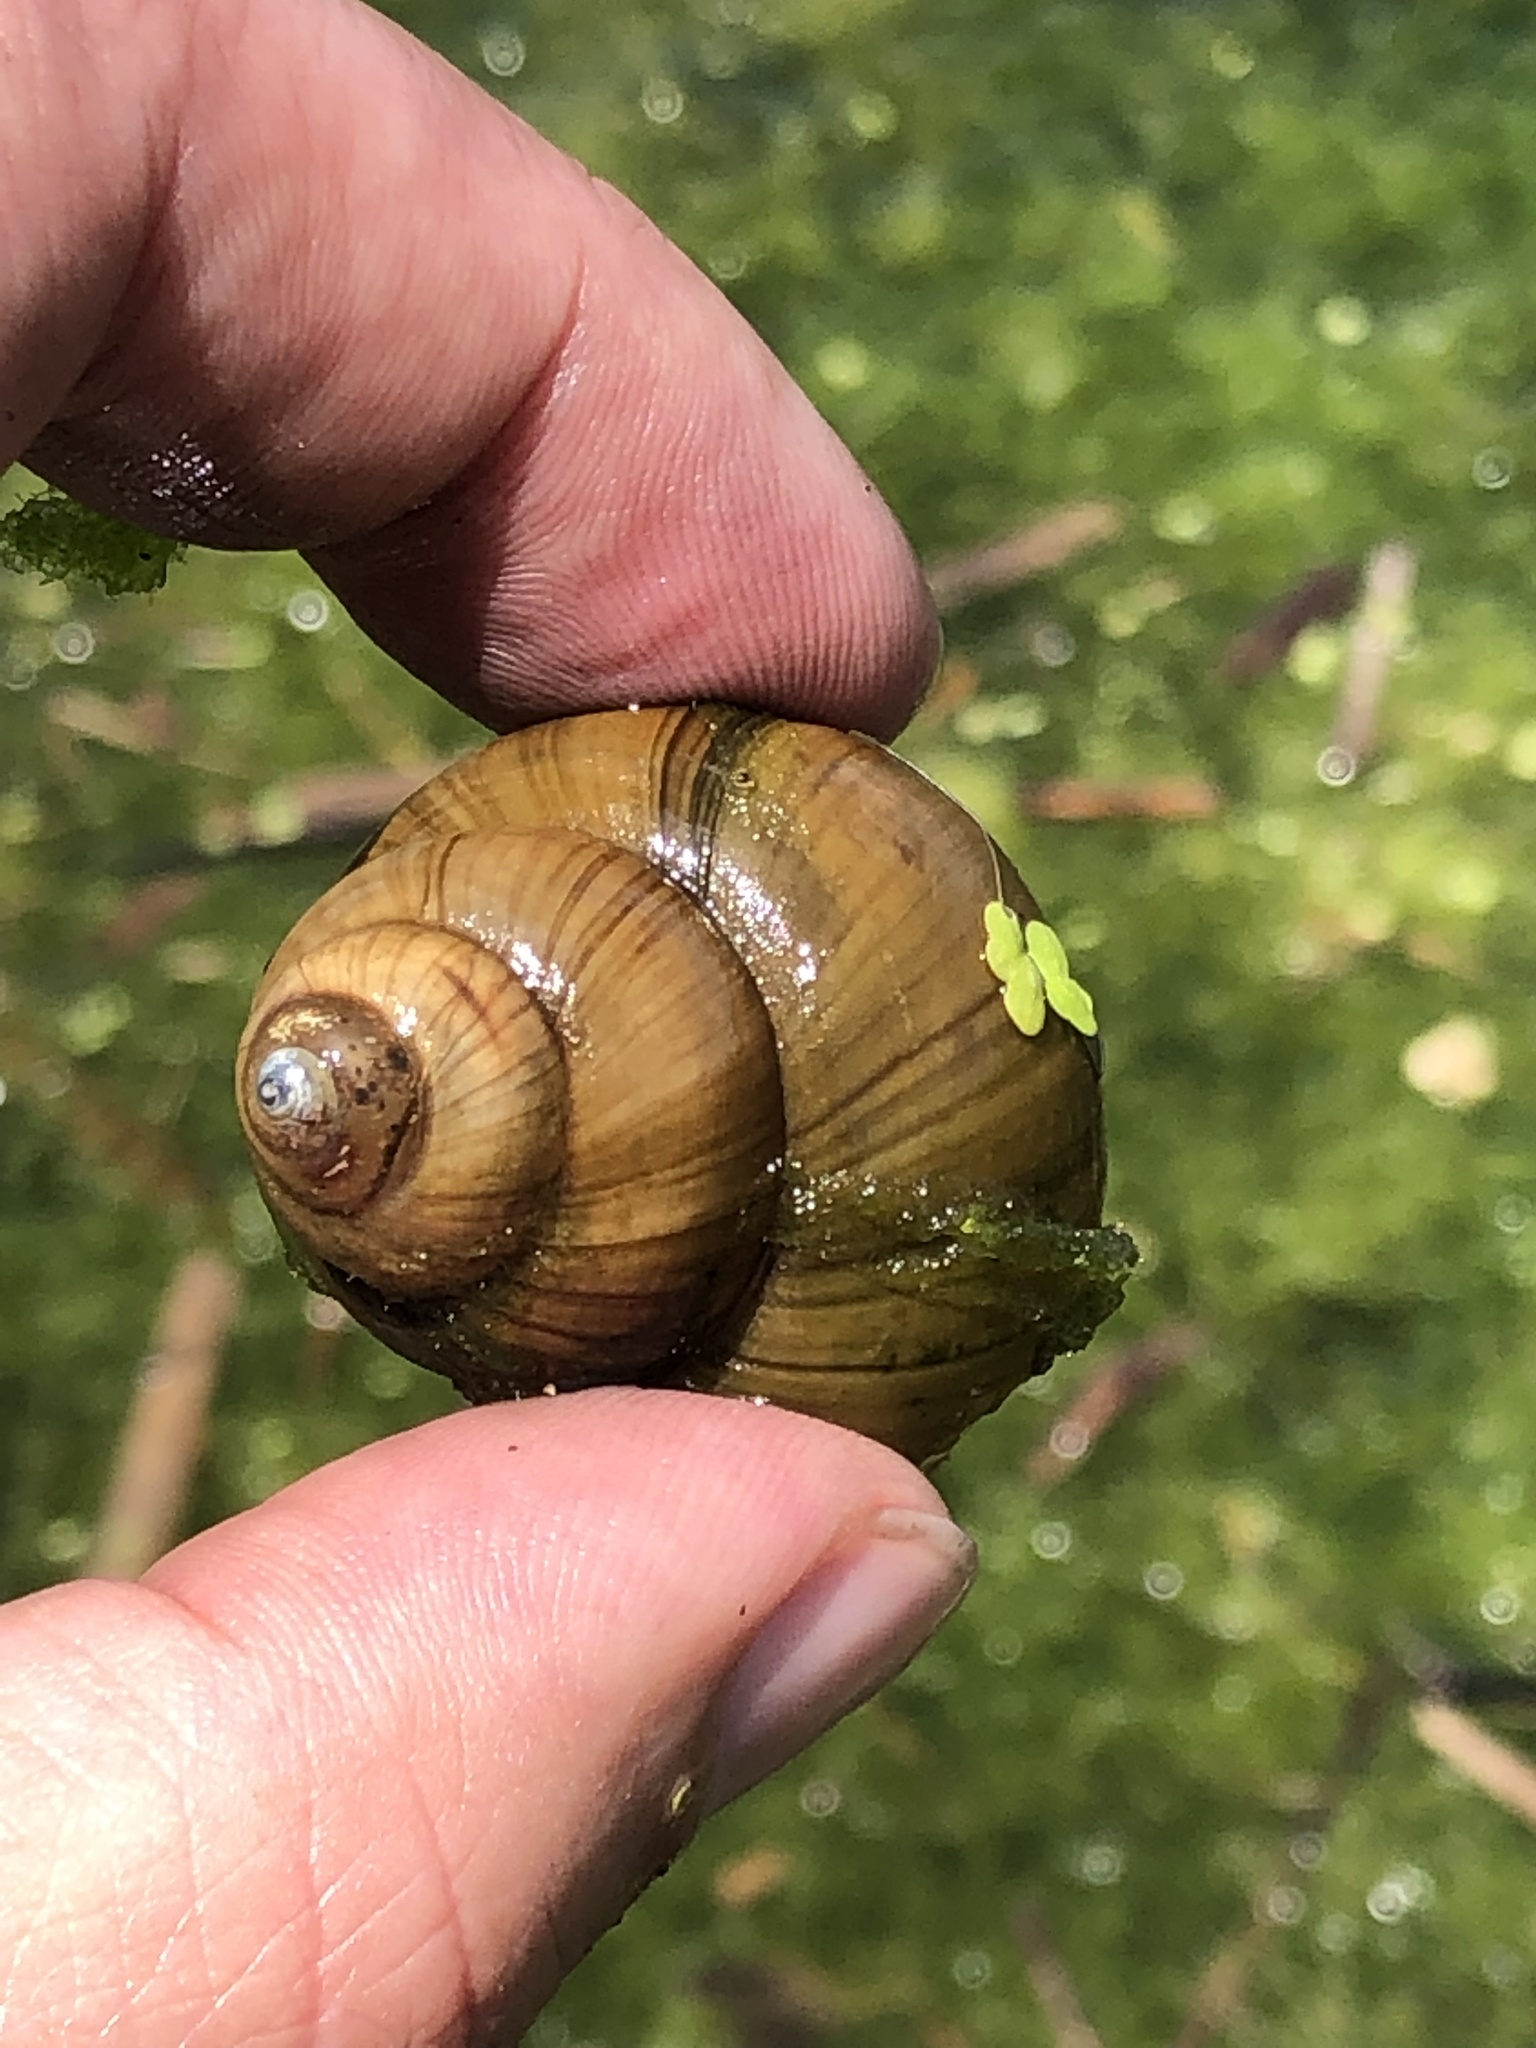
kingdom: Animalia
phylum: Mollusca
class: Gastropoda
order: Architaenioglossa
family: Viviparidae
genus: Cipangopaludina
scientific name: Cipangopaludina chinensis
